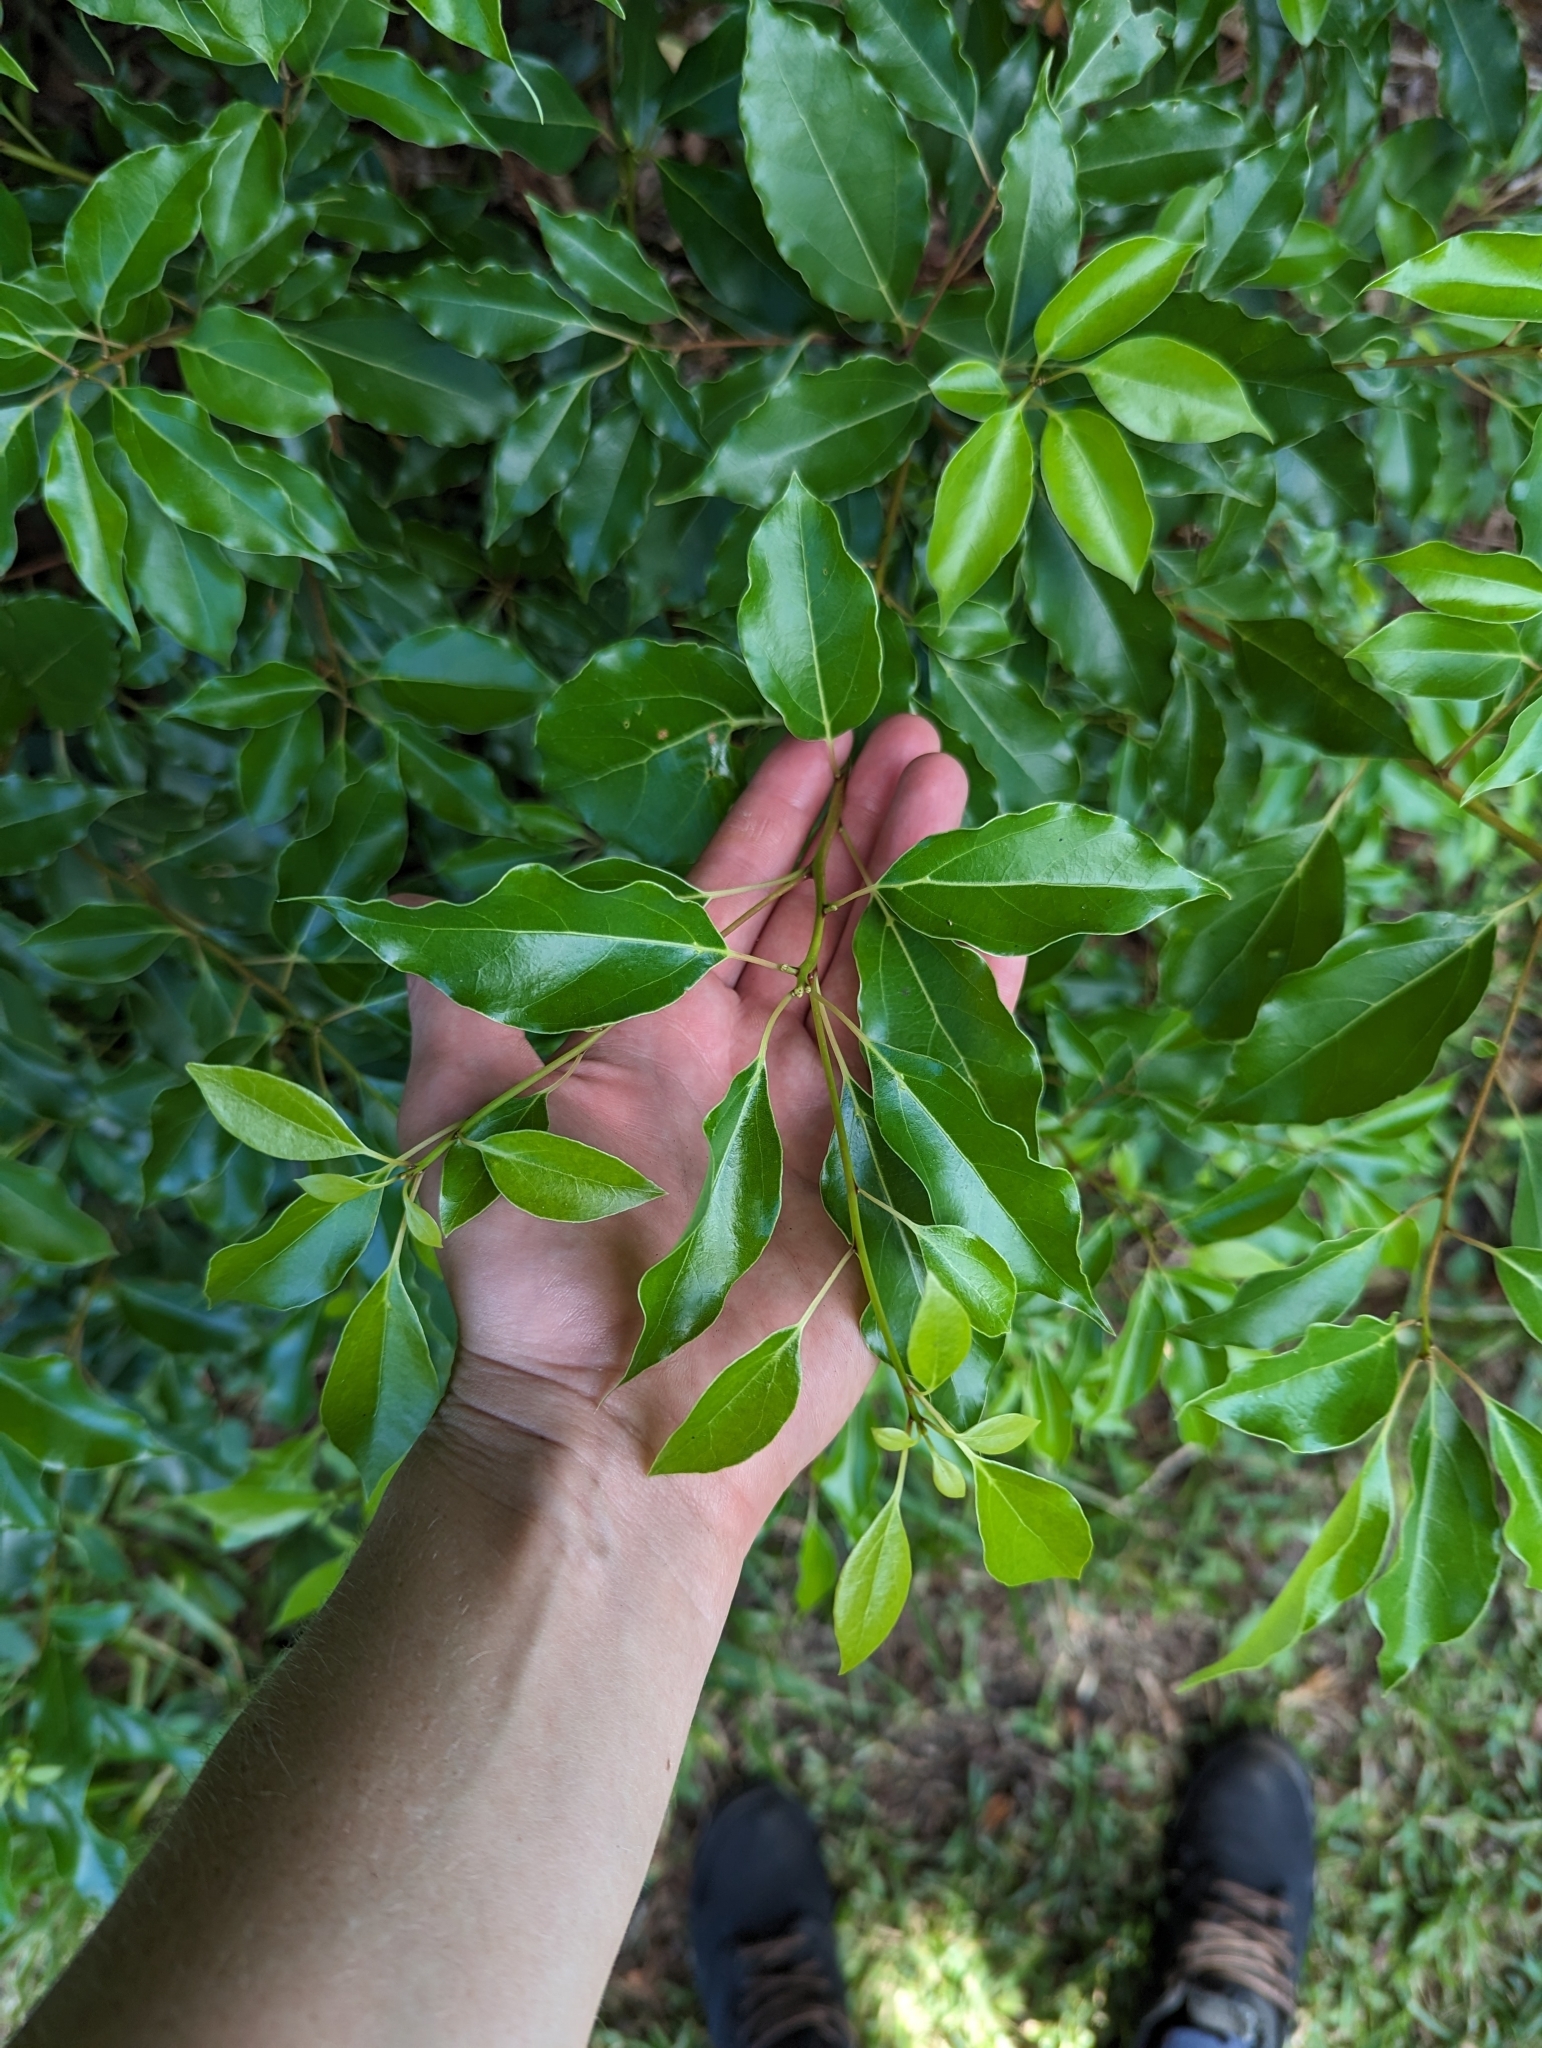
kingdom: Plantae
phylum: Tracheophyta
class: Magnoliopsida
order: Laurales
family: Lauraceae
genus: Cinnamomum
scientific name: Cinnamomum camphora
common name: Camphortree
